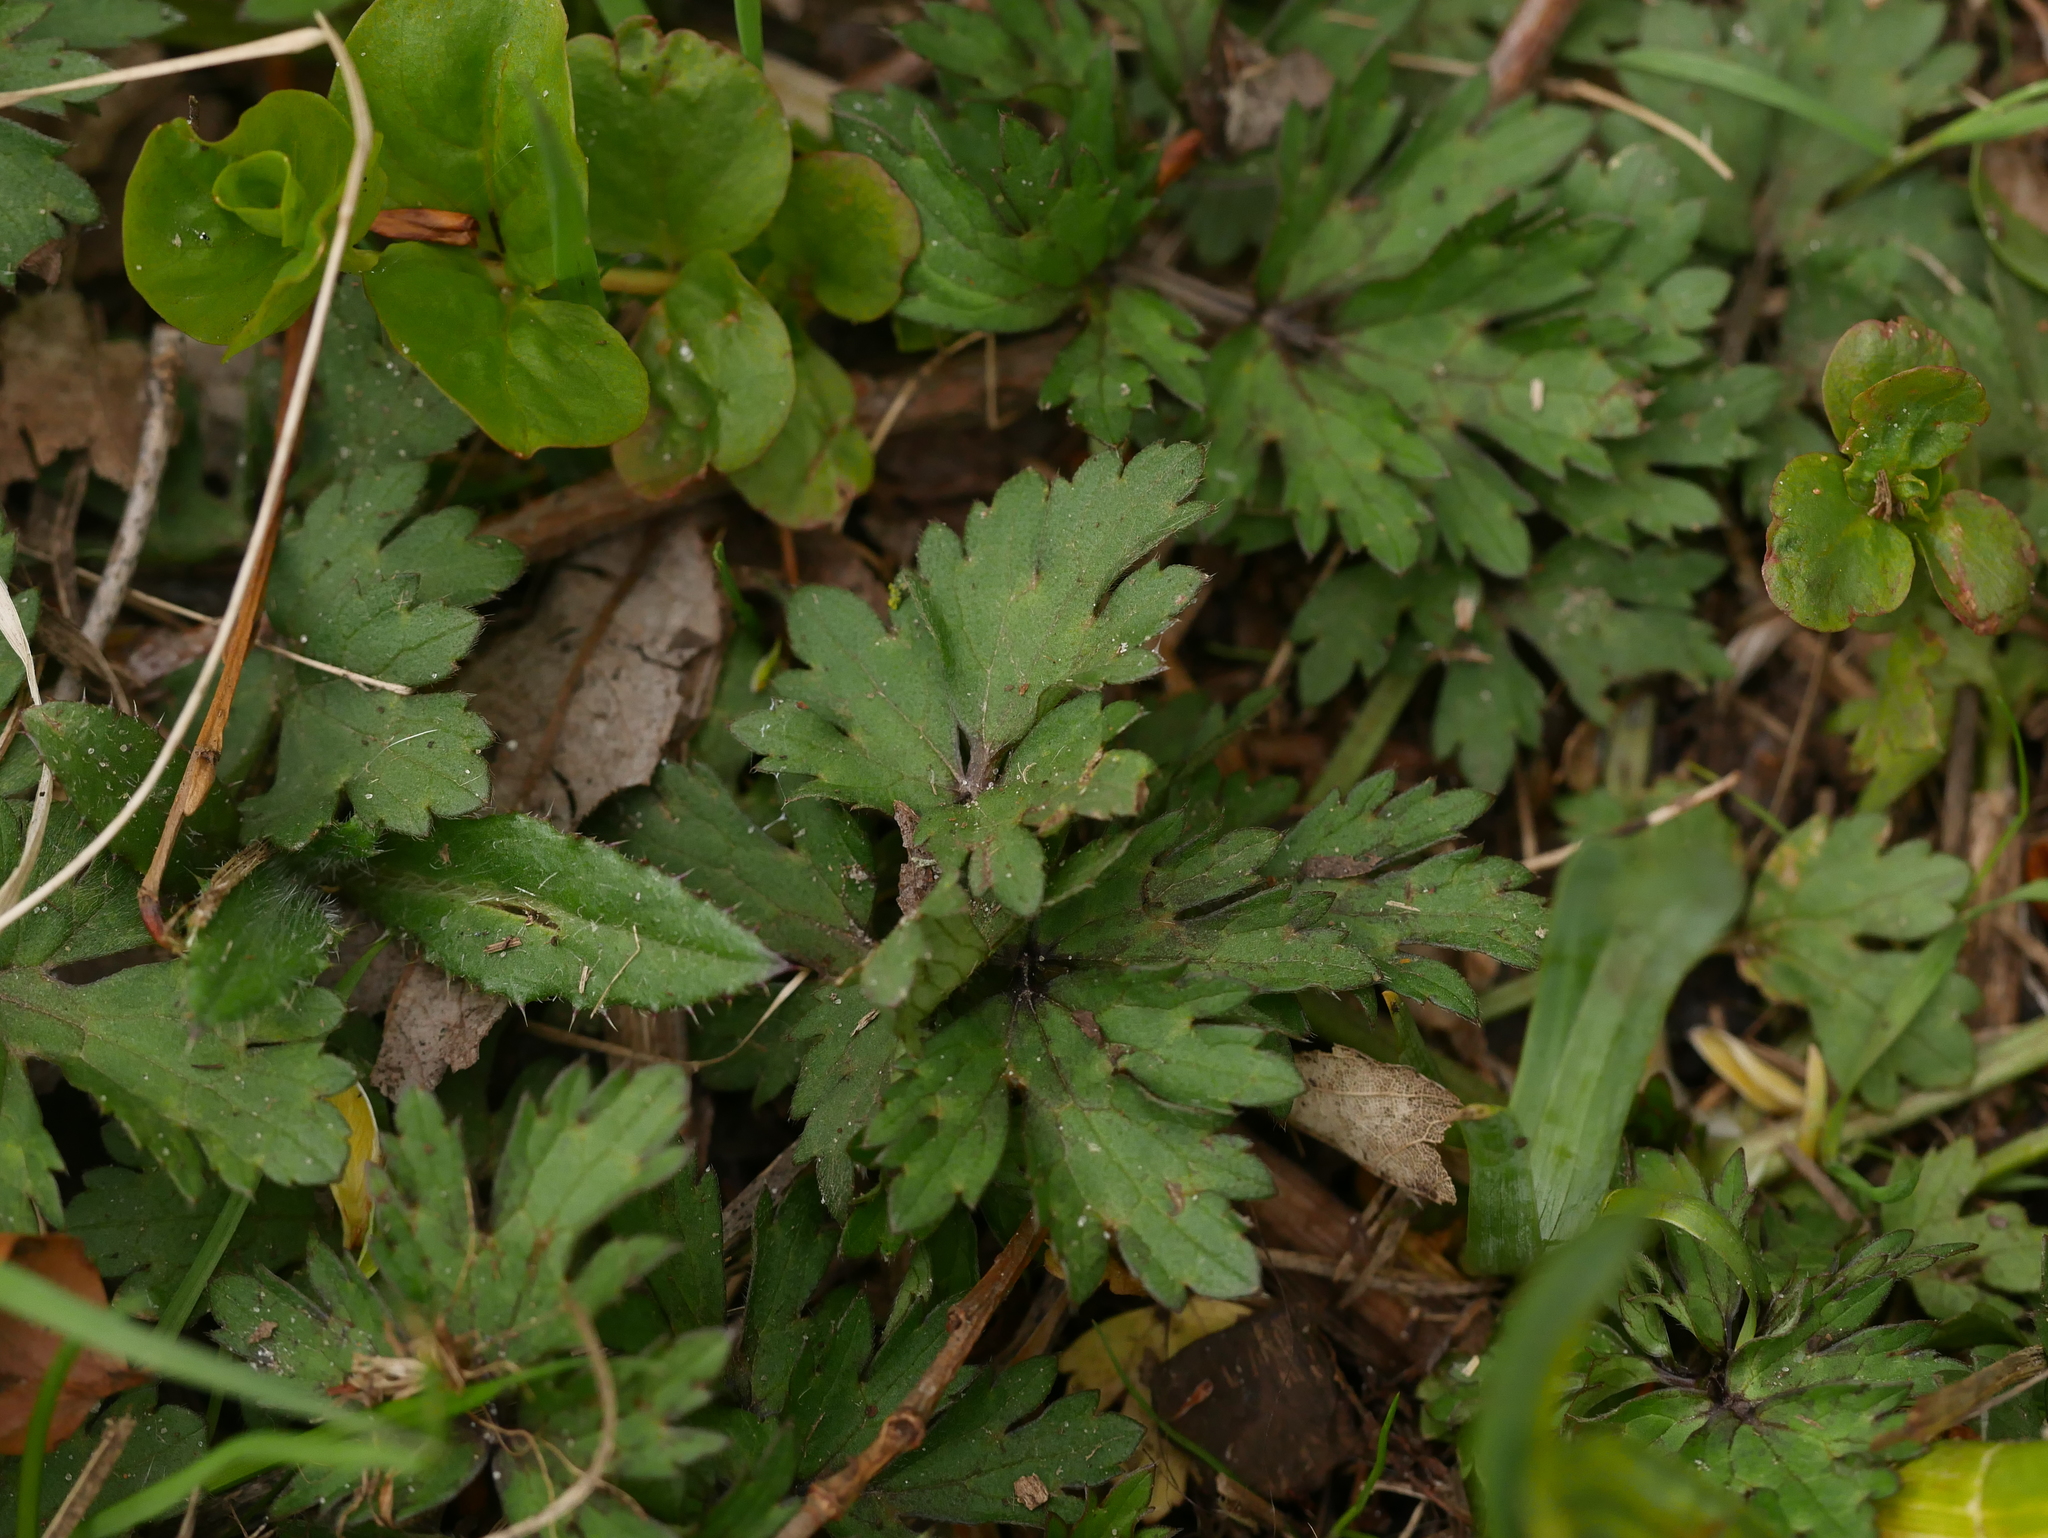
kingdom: Plantae
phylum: Tracheophyta
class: Magnoliopsida
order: Ranunculales
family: Ranunculaceae
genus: Ranunculus
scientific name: Ranunculus repens
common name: Creeping buttercup
